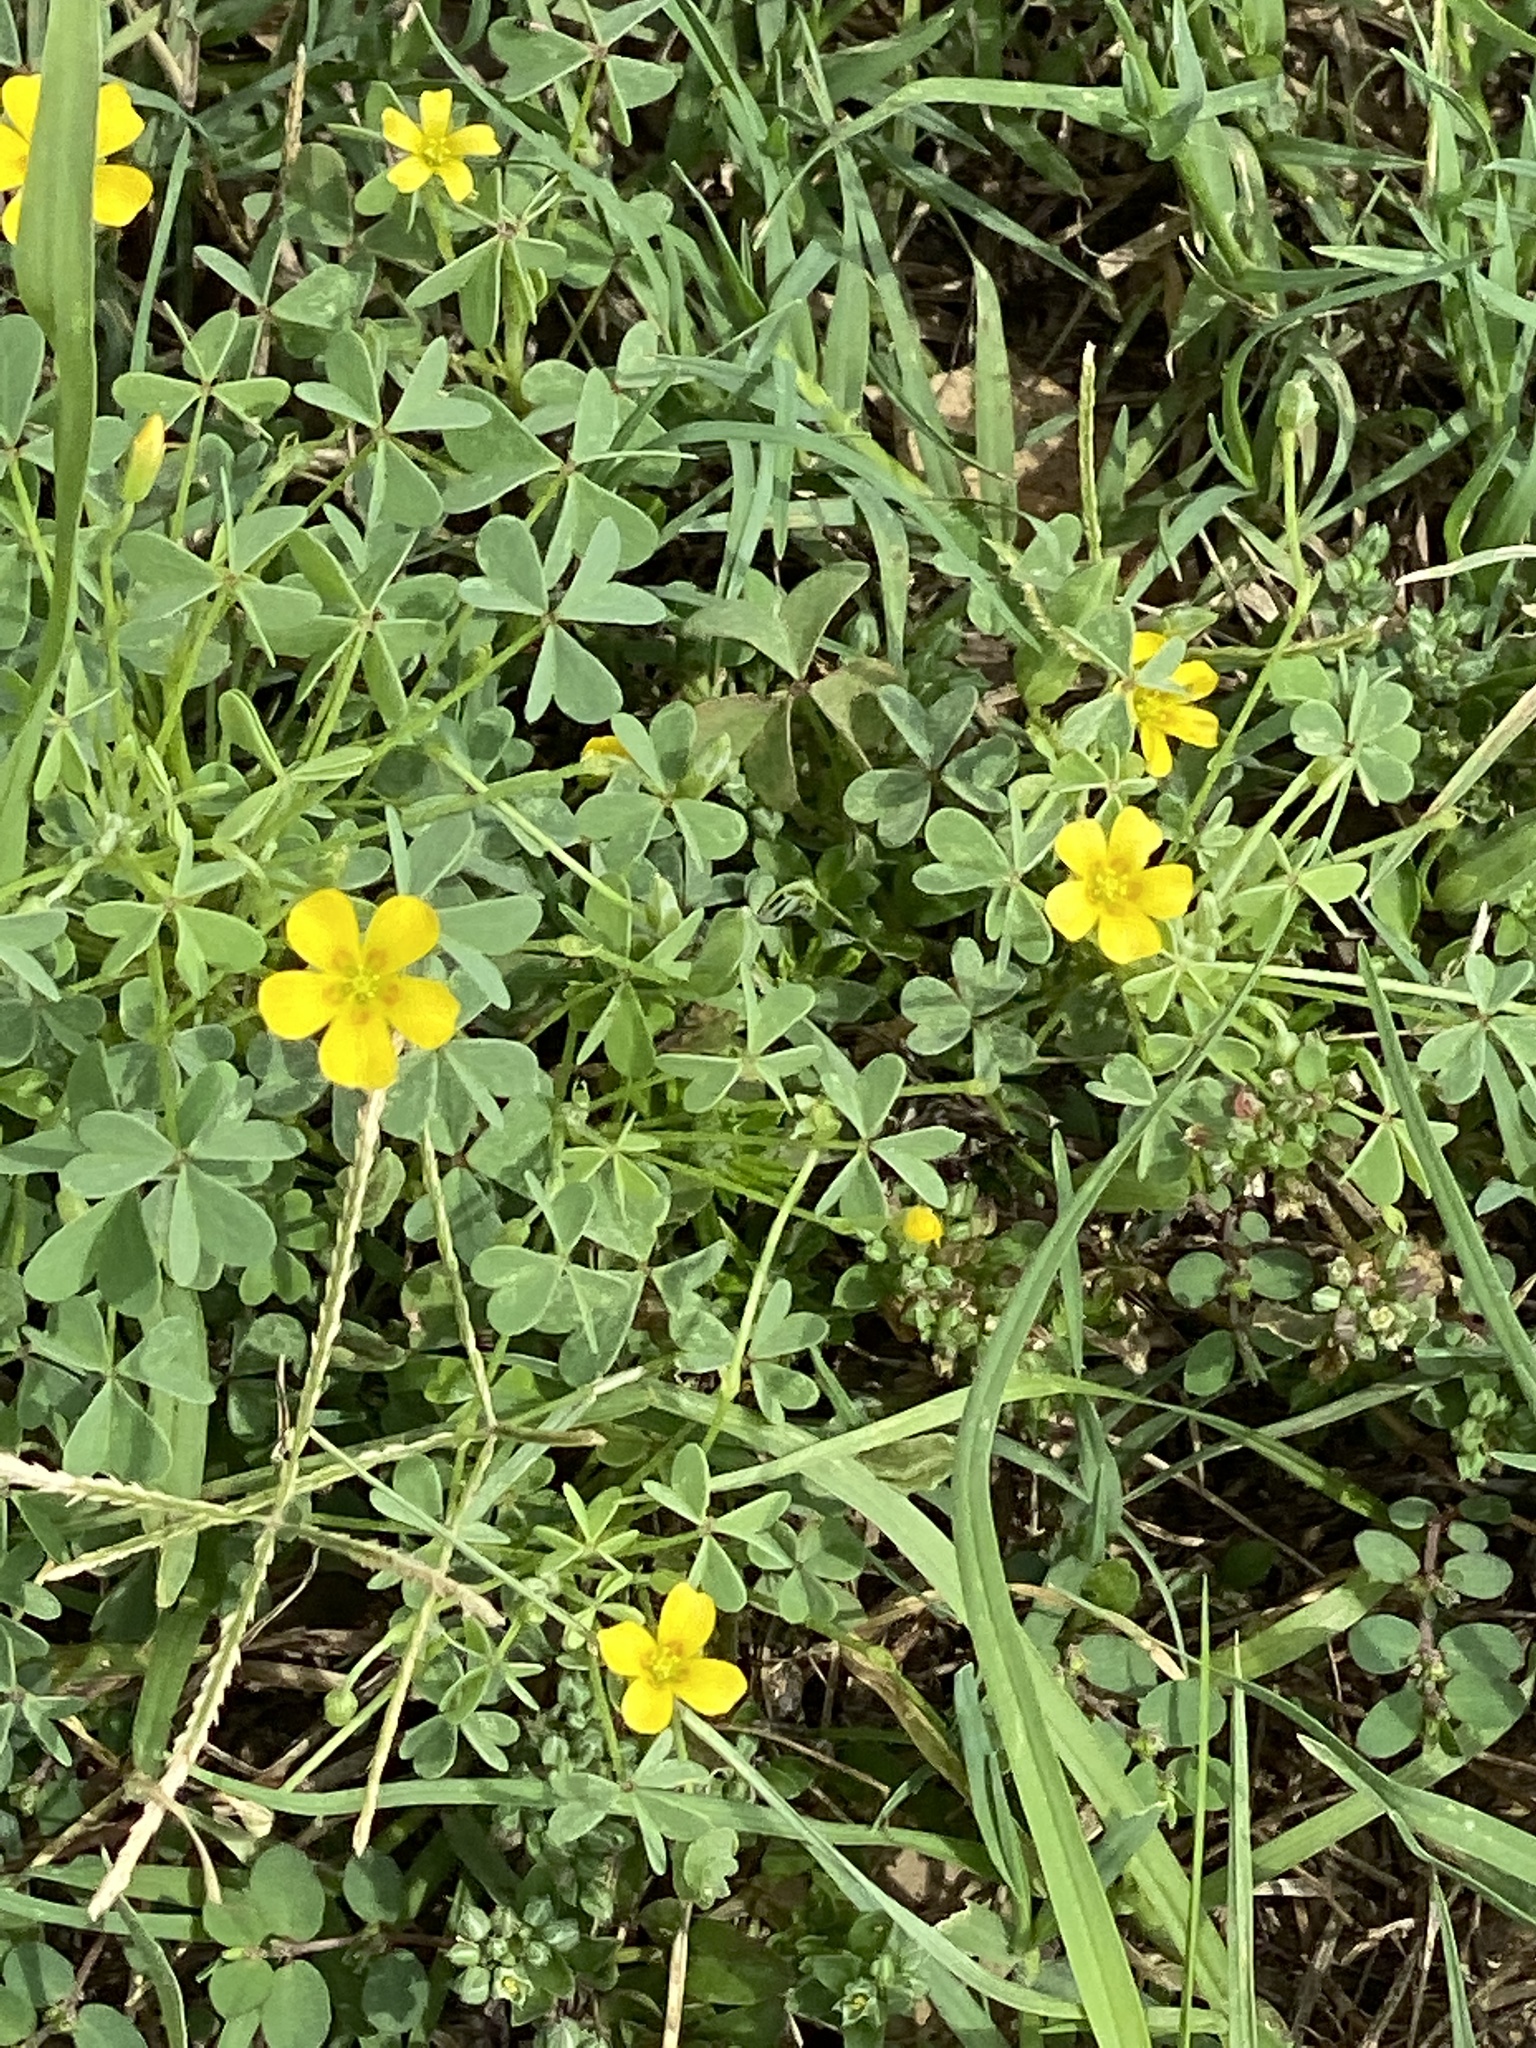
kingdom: Plantae
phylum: Tracheophyta
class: Magnoliopsida
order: Oxalidales
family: Oxalidaceae
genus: Oxalis
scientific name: Oxalis dillenii
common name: Sussex yellow-sorrel
